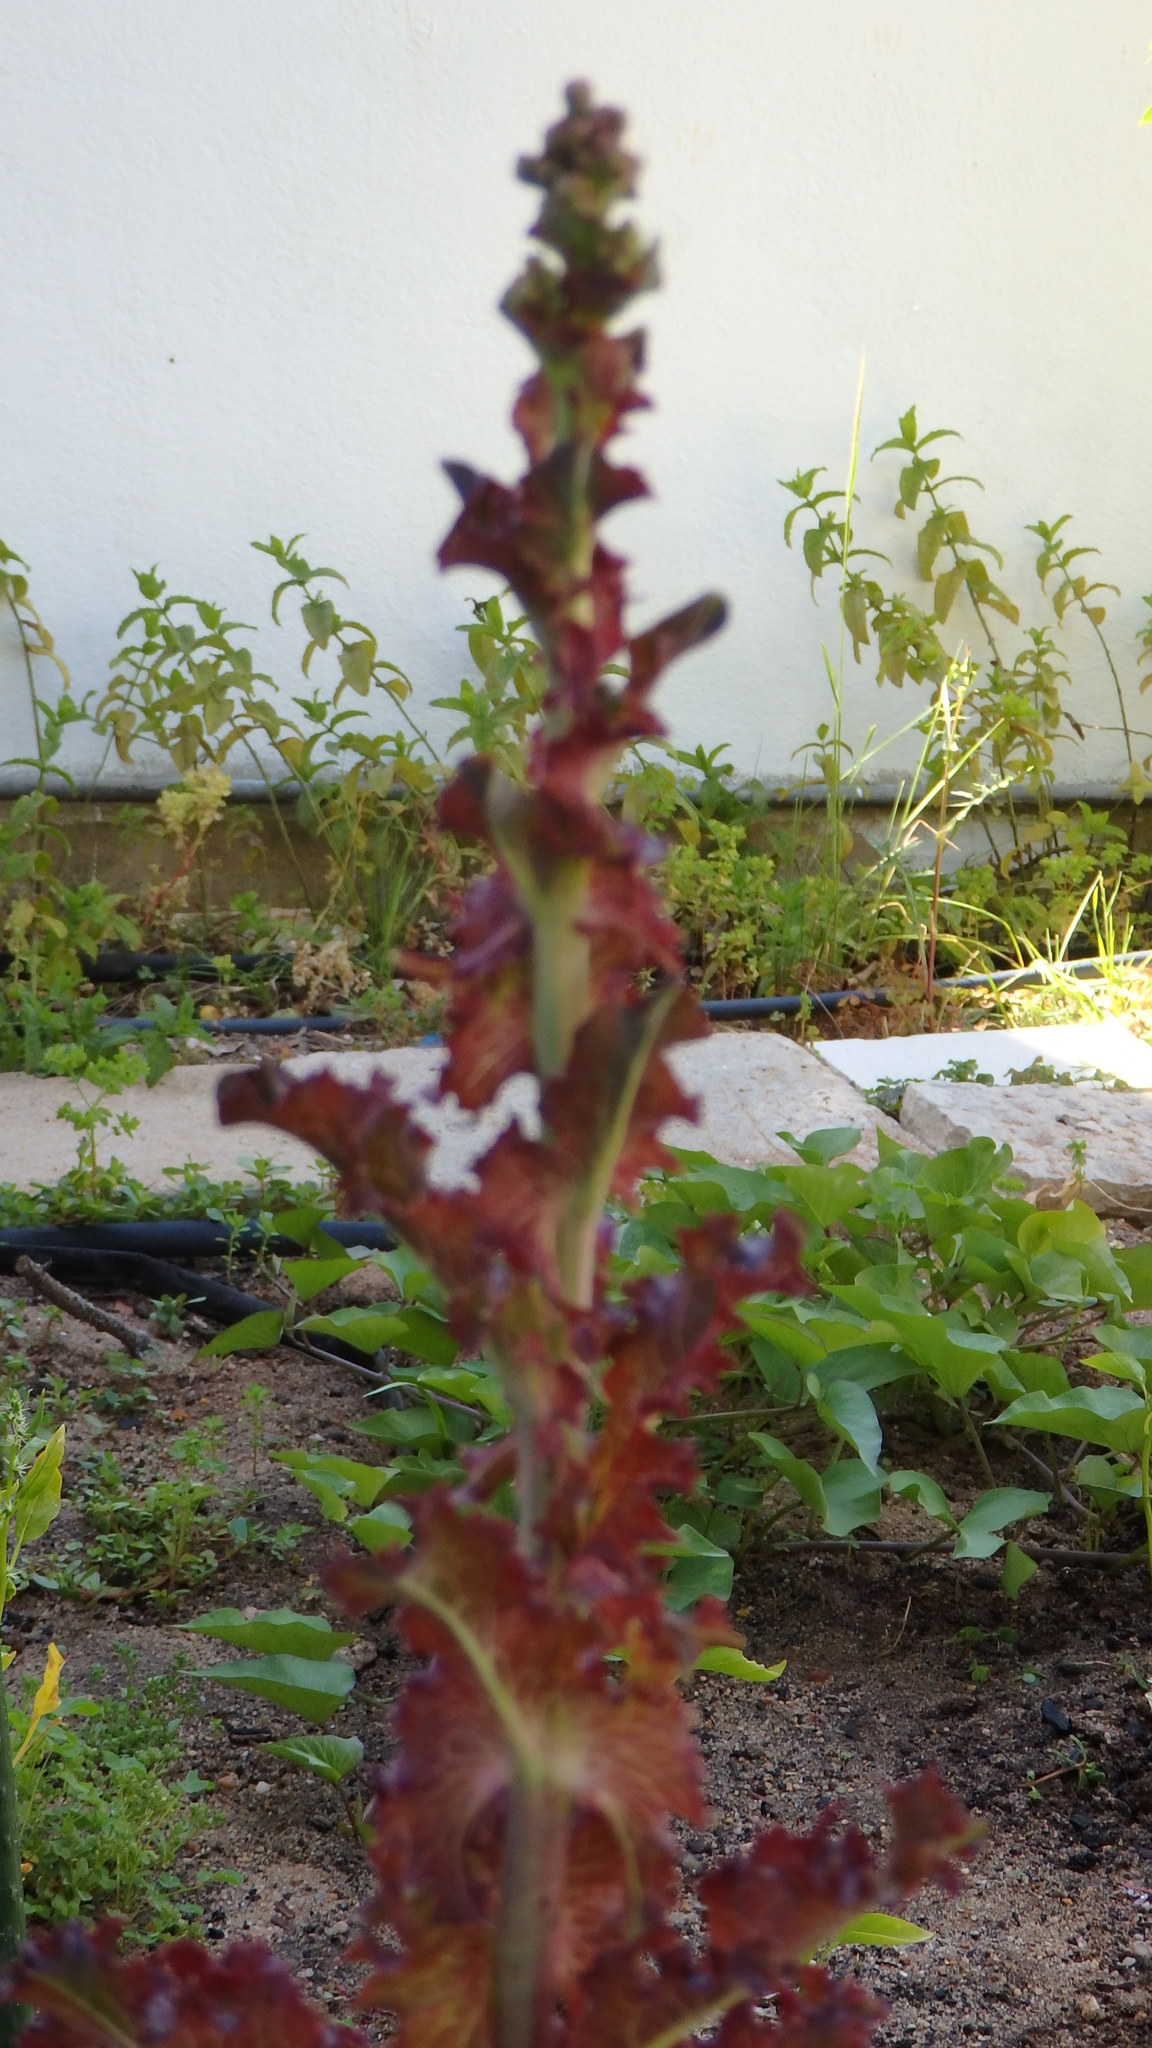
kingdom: Plantae
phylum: Tracheophyta
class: Magnoliopsida
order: Asterales
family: Asteraceae
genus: Lactuca
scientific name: Lactuca sativa
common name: Garden lettuce
